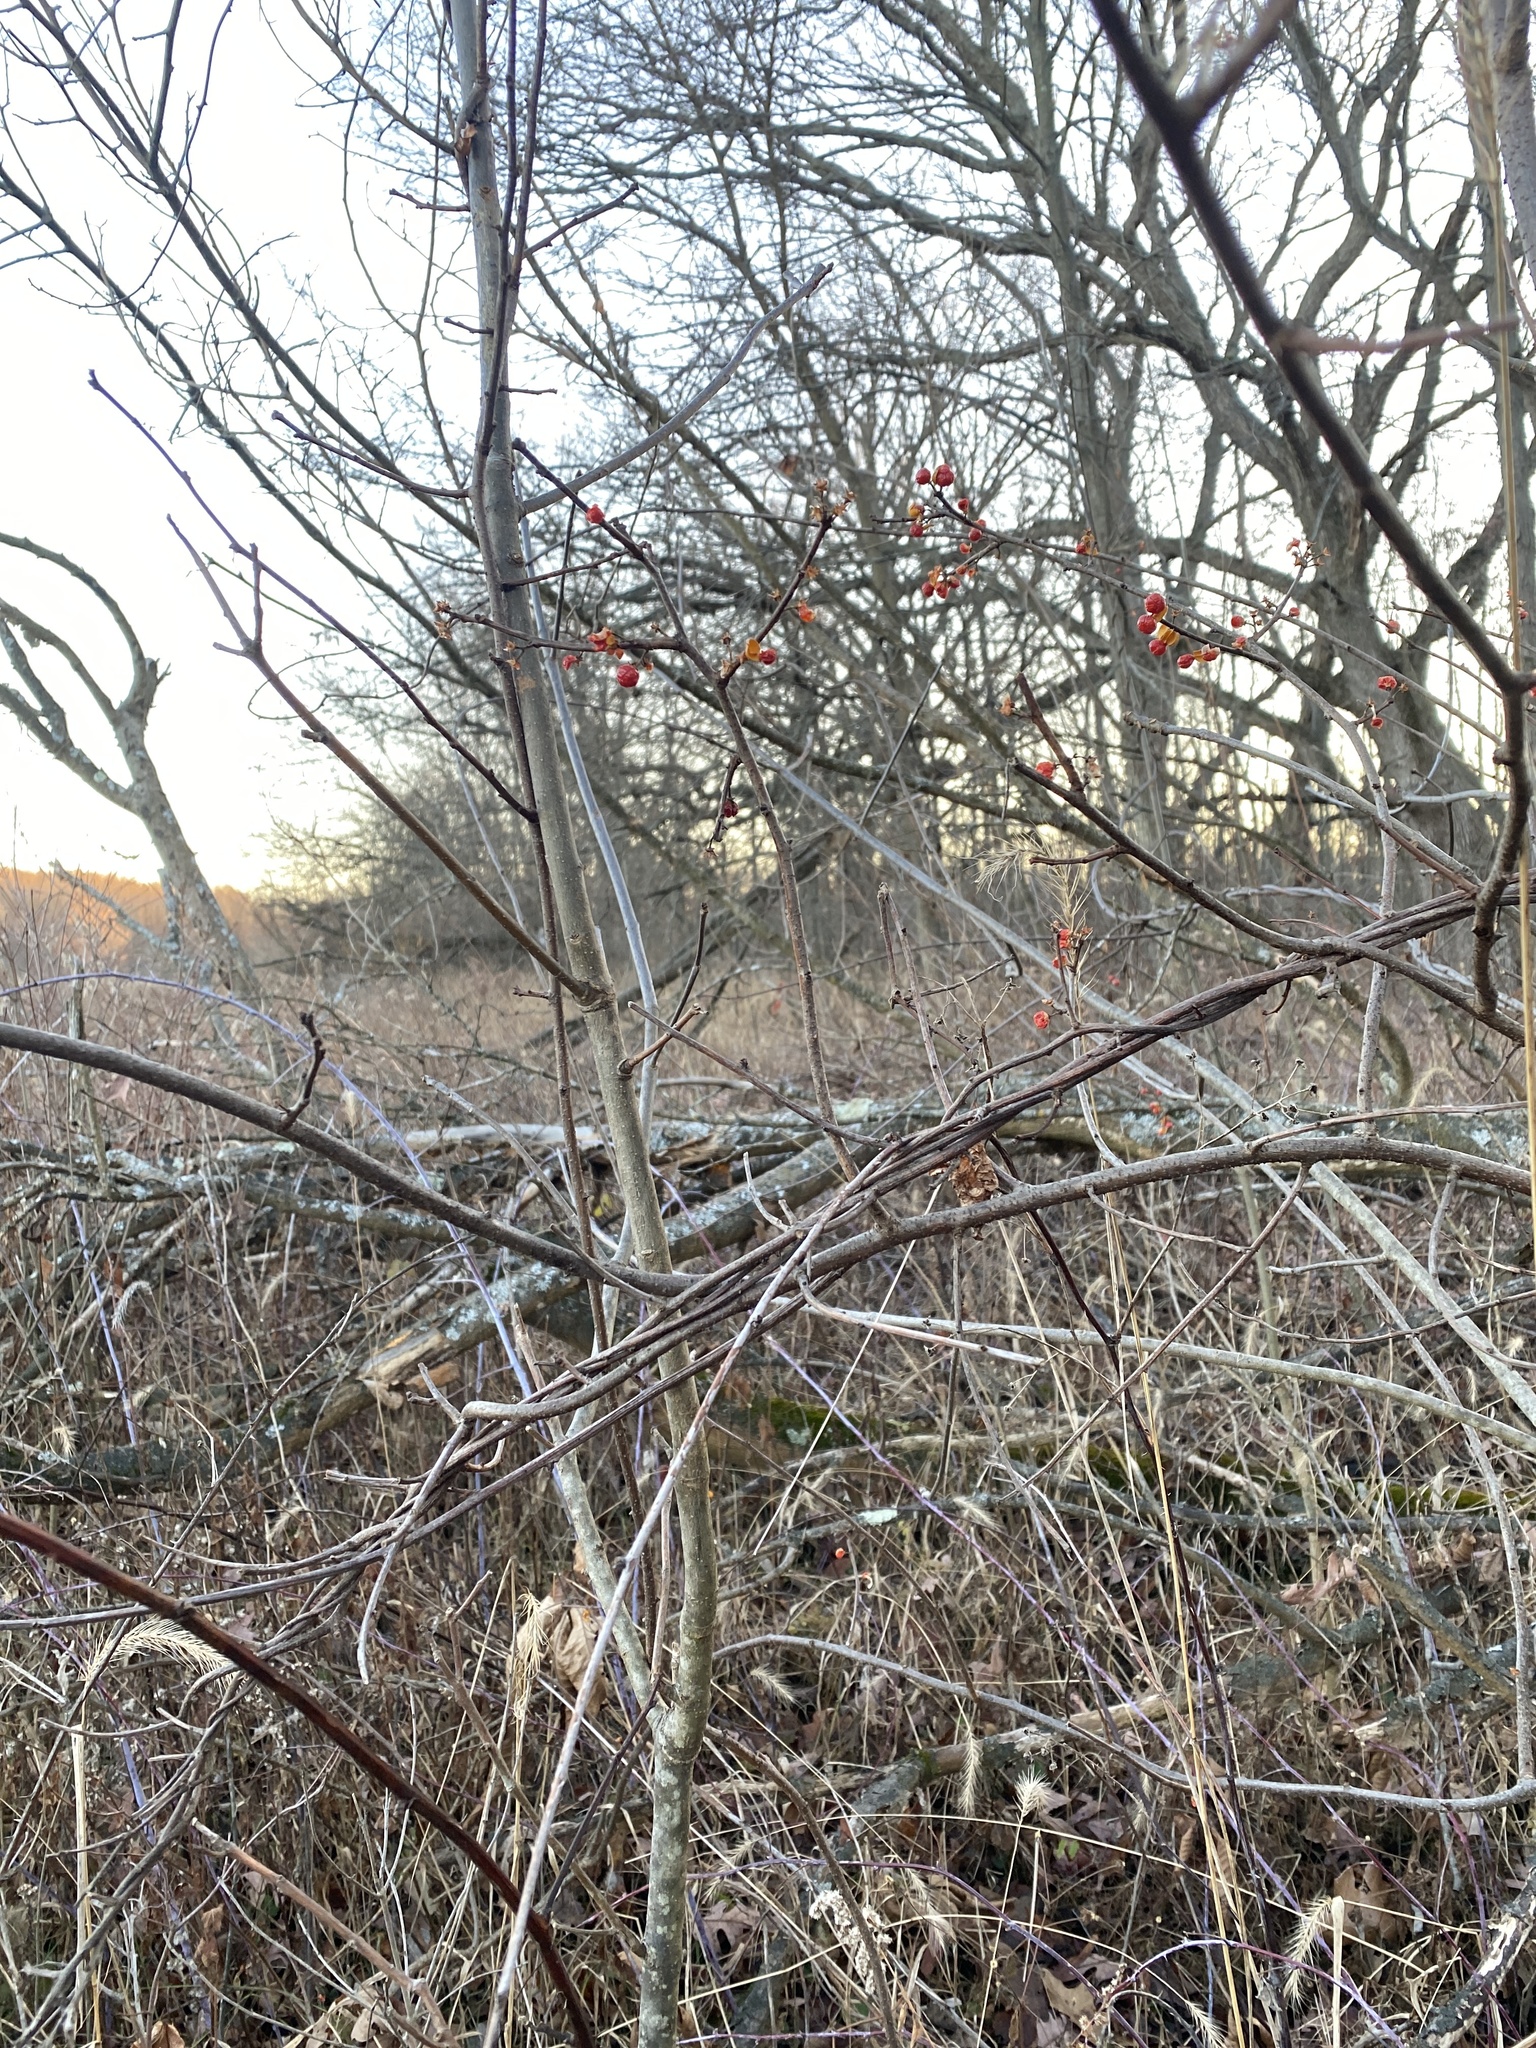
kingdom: Plantae
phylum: Tracheophyta
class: Magnoliopsida
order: Celastrales
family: Celastraceae
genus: Celastrus
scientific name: Celastrus orbiculatus
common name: Oriental bittersweet
